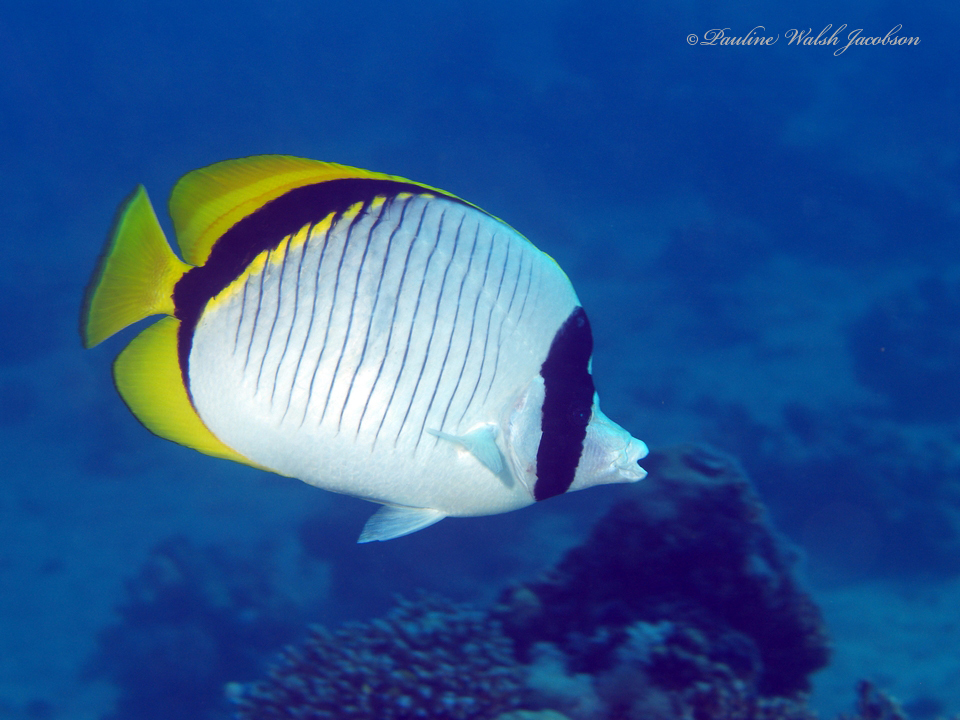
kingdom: Animalia
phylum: Chordata
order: Perciformes
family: Chaetodontidae
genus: Chaetodon
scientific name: Chaetodon lineolatus
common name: Lined butterflyfish
